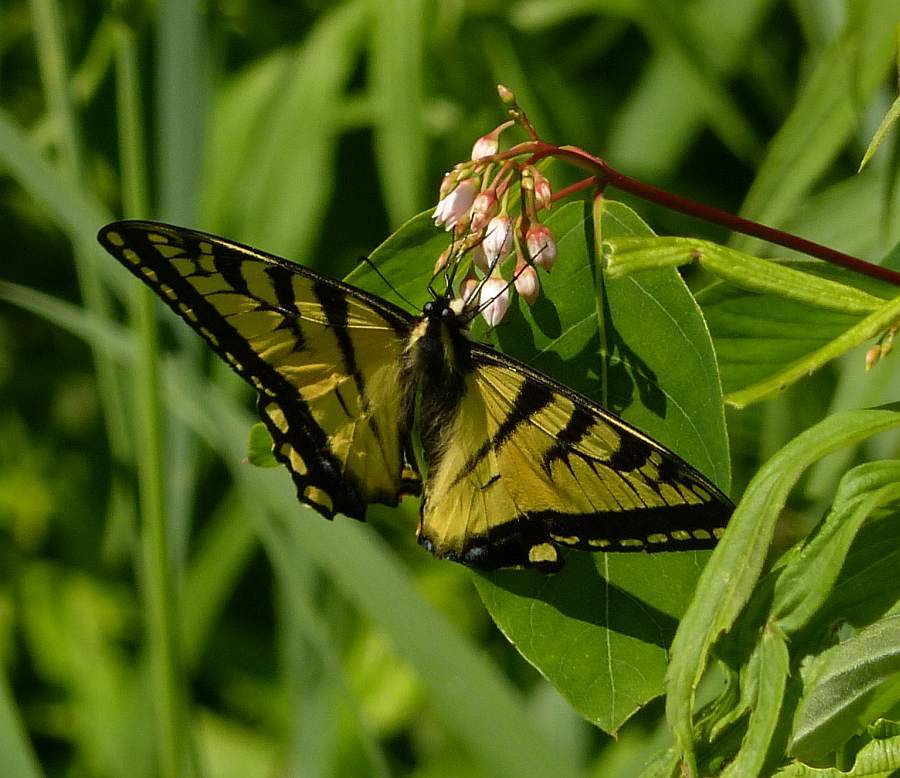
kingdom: Animalia
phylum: Arthropoda
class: Insecta
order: Lepidoptera
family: Papilionidae
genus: Papilio
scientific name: Papilio canadensis
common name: Canadian tiger swallowtail
